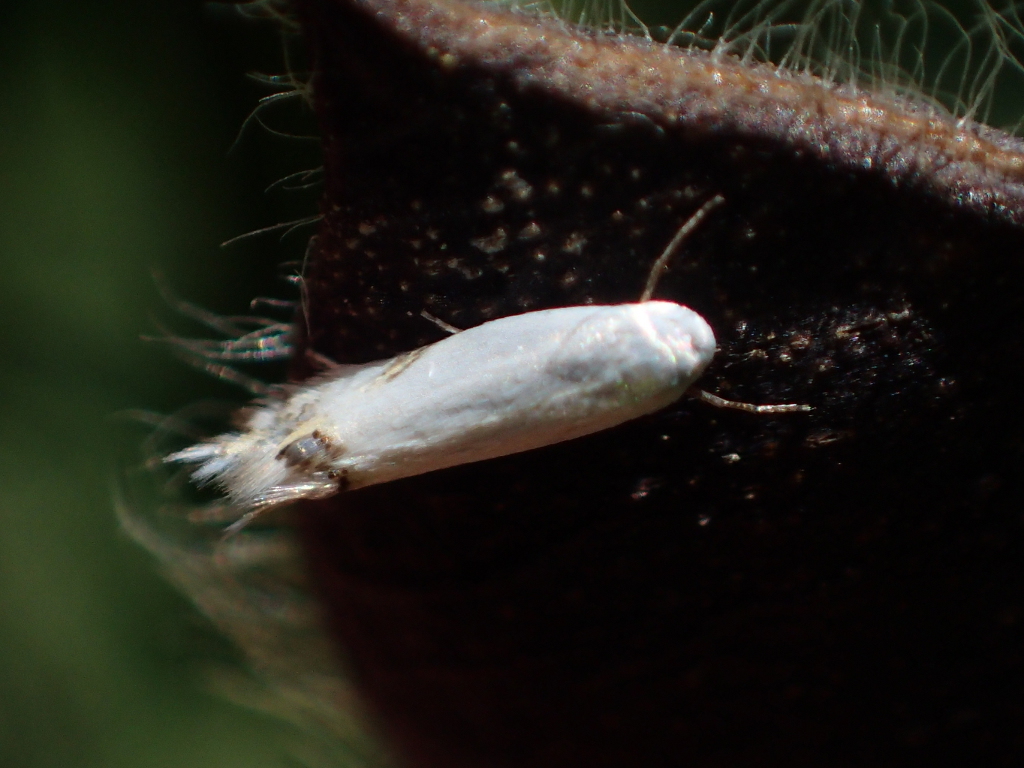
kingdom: Animalia
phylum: Arthropoda
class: Insecta
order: Lepidoptera
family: Lyonetiidae
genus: Leucoptera
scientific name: Leucoptera spartifoliella
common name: Scotch broom twig miner
